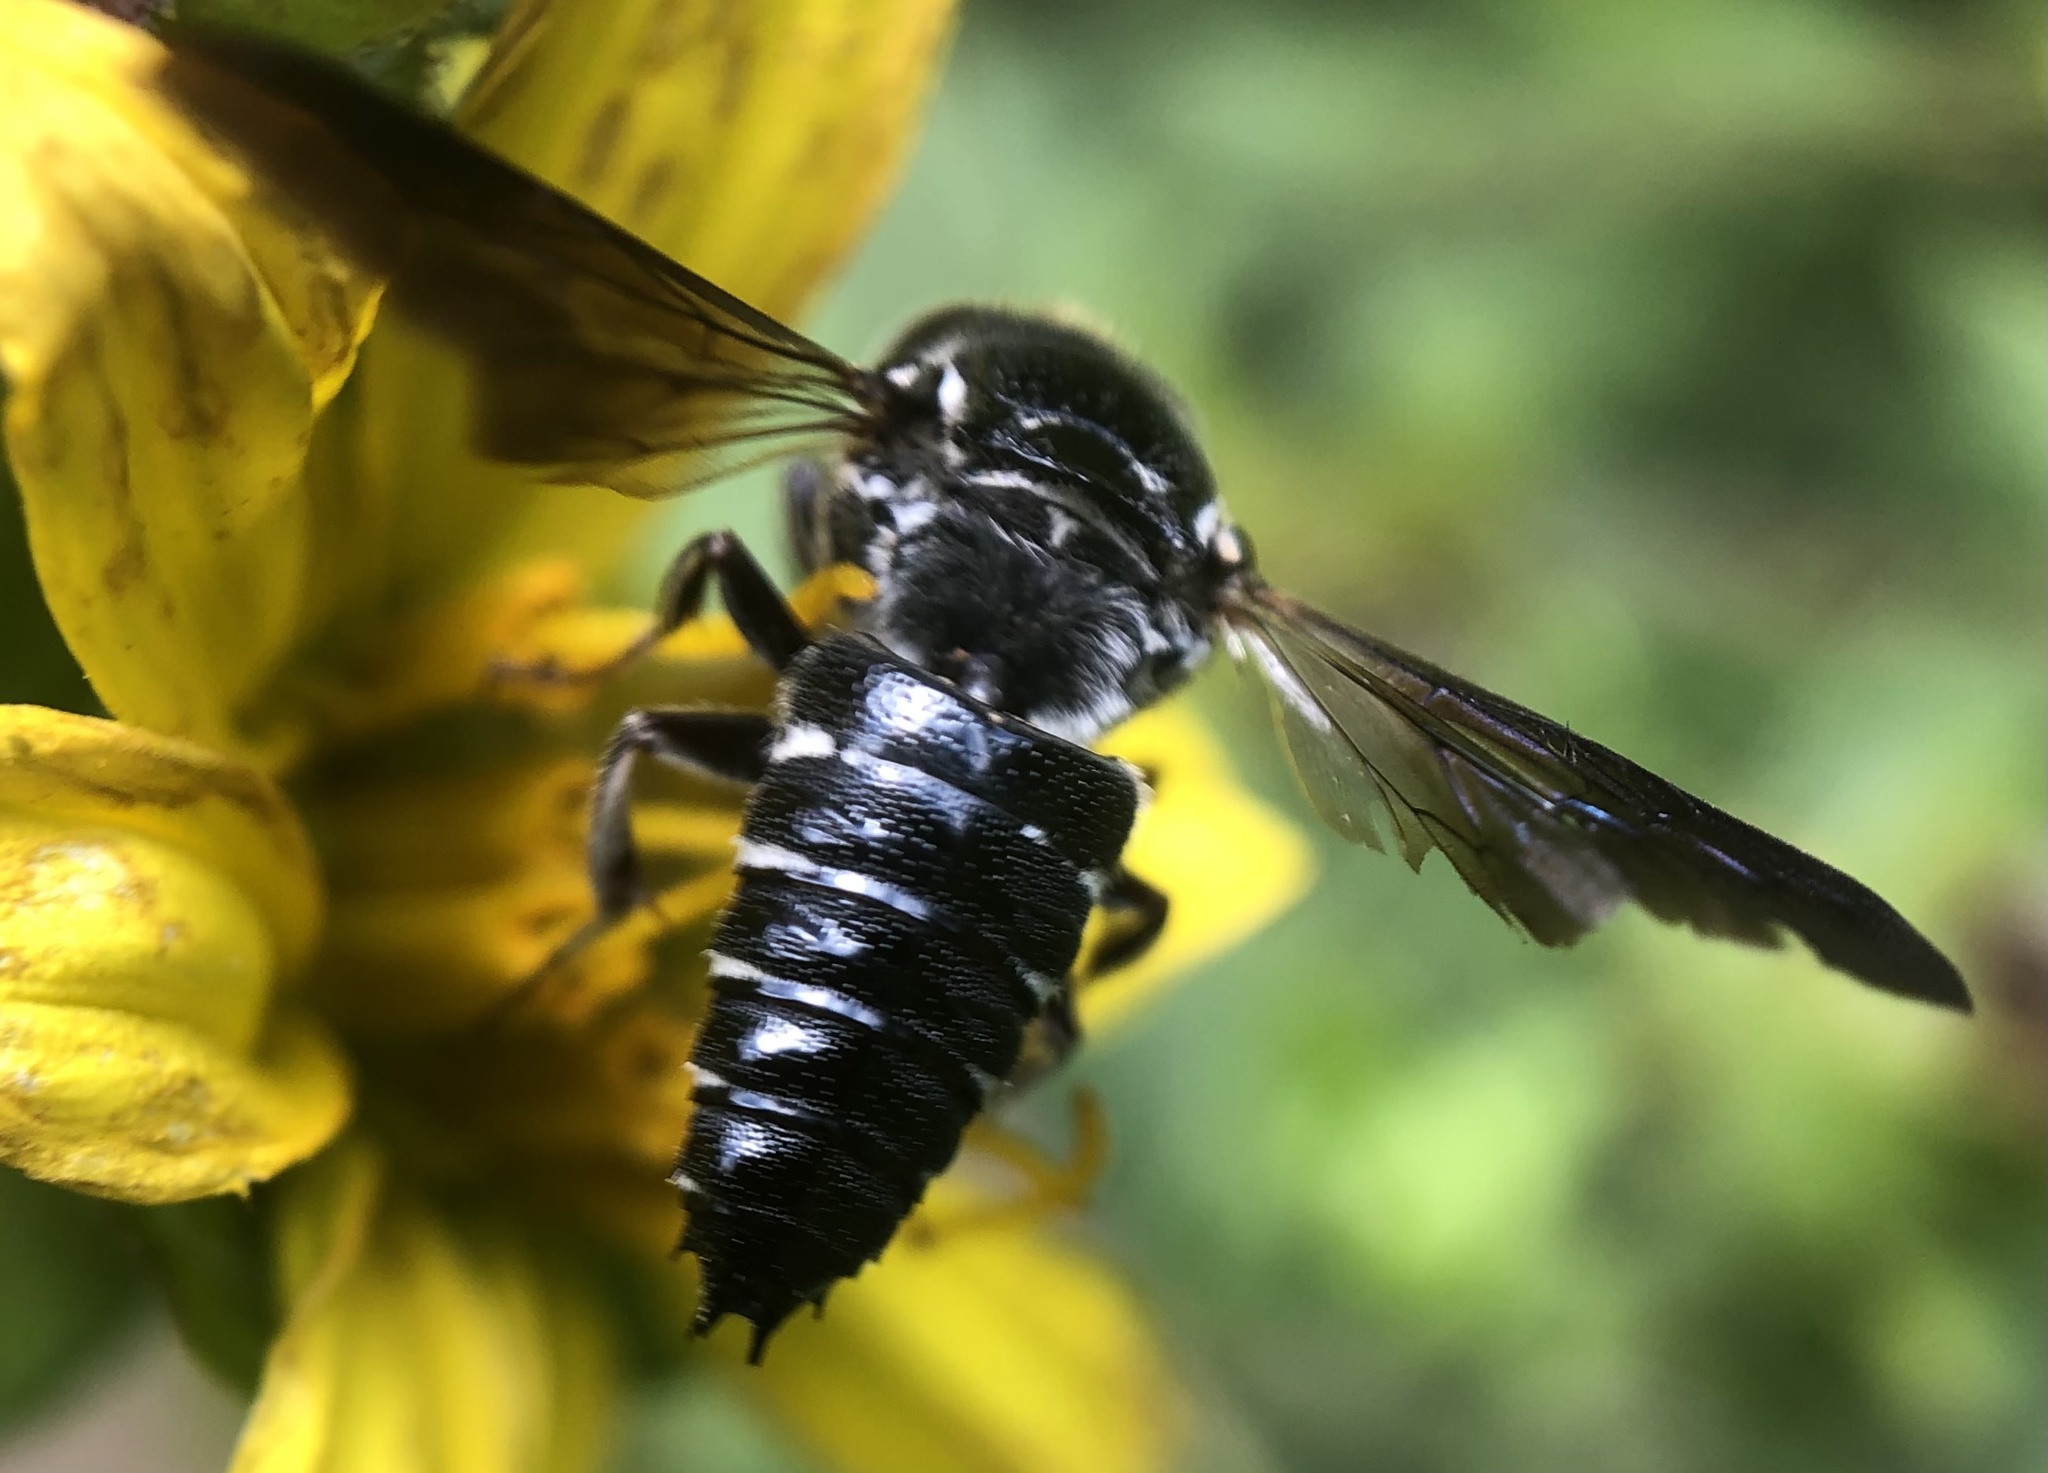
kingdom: Animalia
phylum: Arthropoda
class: Insecta
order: Hymenoptera
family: Megachilidae
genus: Coelioxys
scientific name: Coelioxys dolichos
